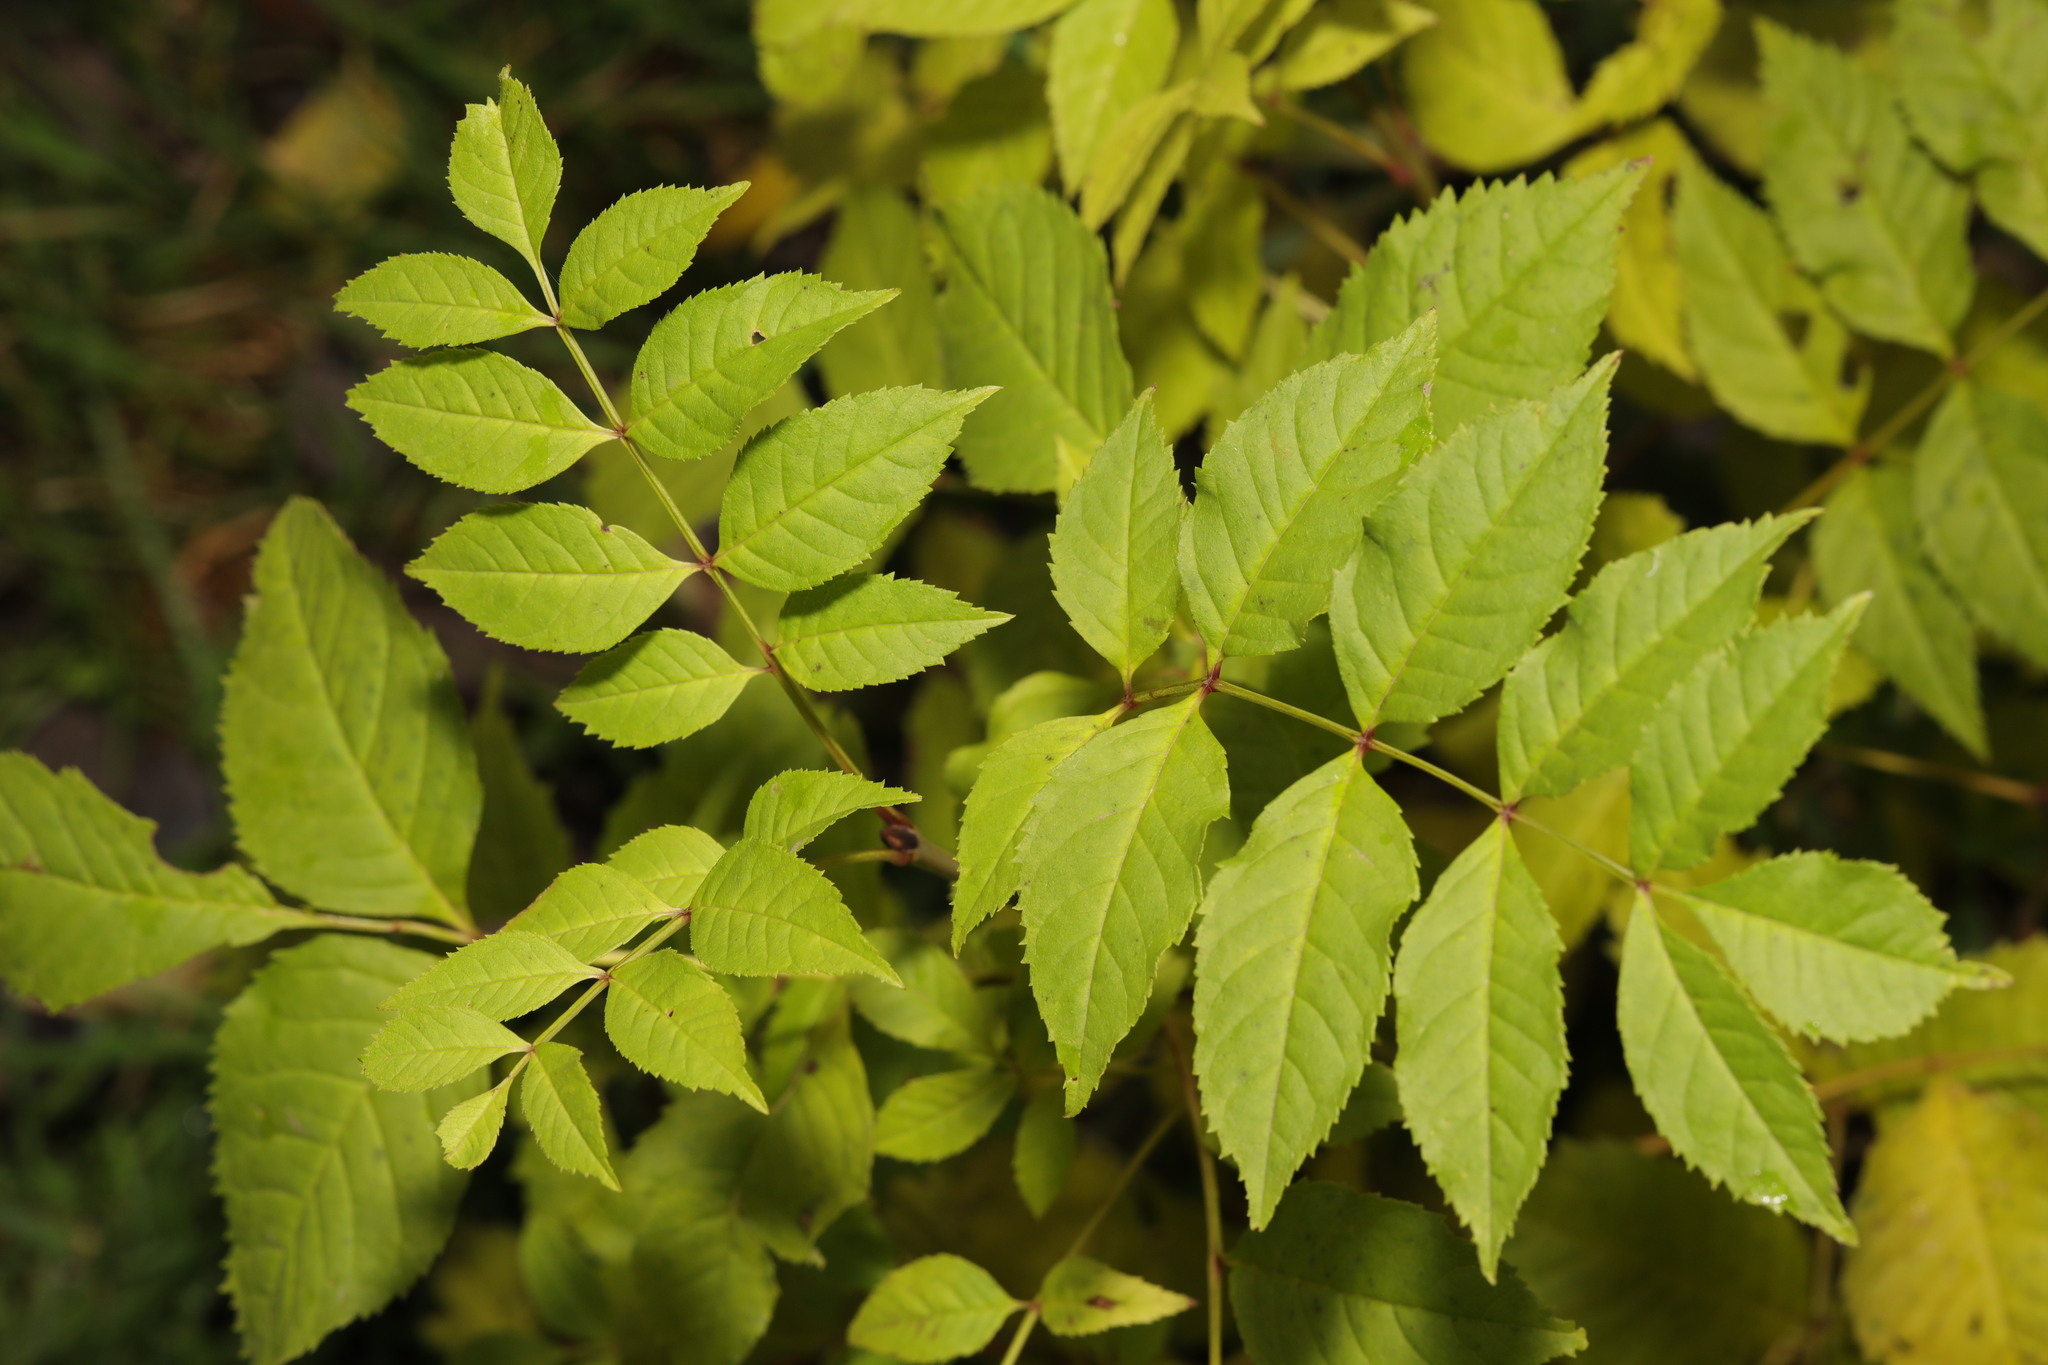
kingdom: Plantae
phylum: Tracheophyta
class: Magnoliopsida
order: Lamiales
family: Oleaceae
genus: Fraxinus
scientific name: Fraxinus excelsior
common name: European ash
